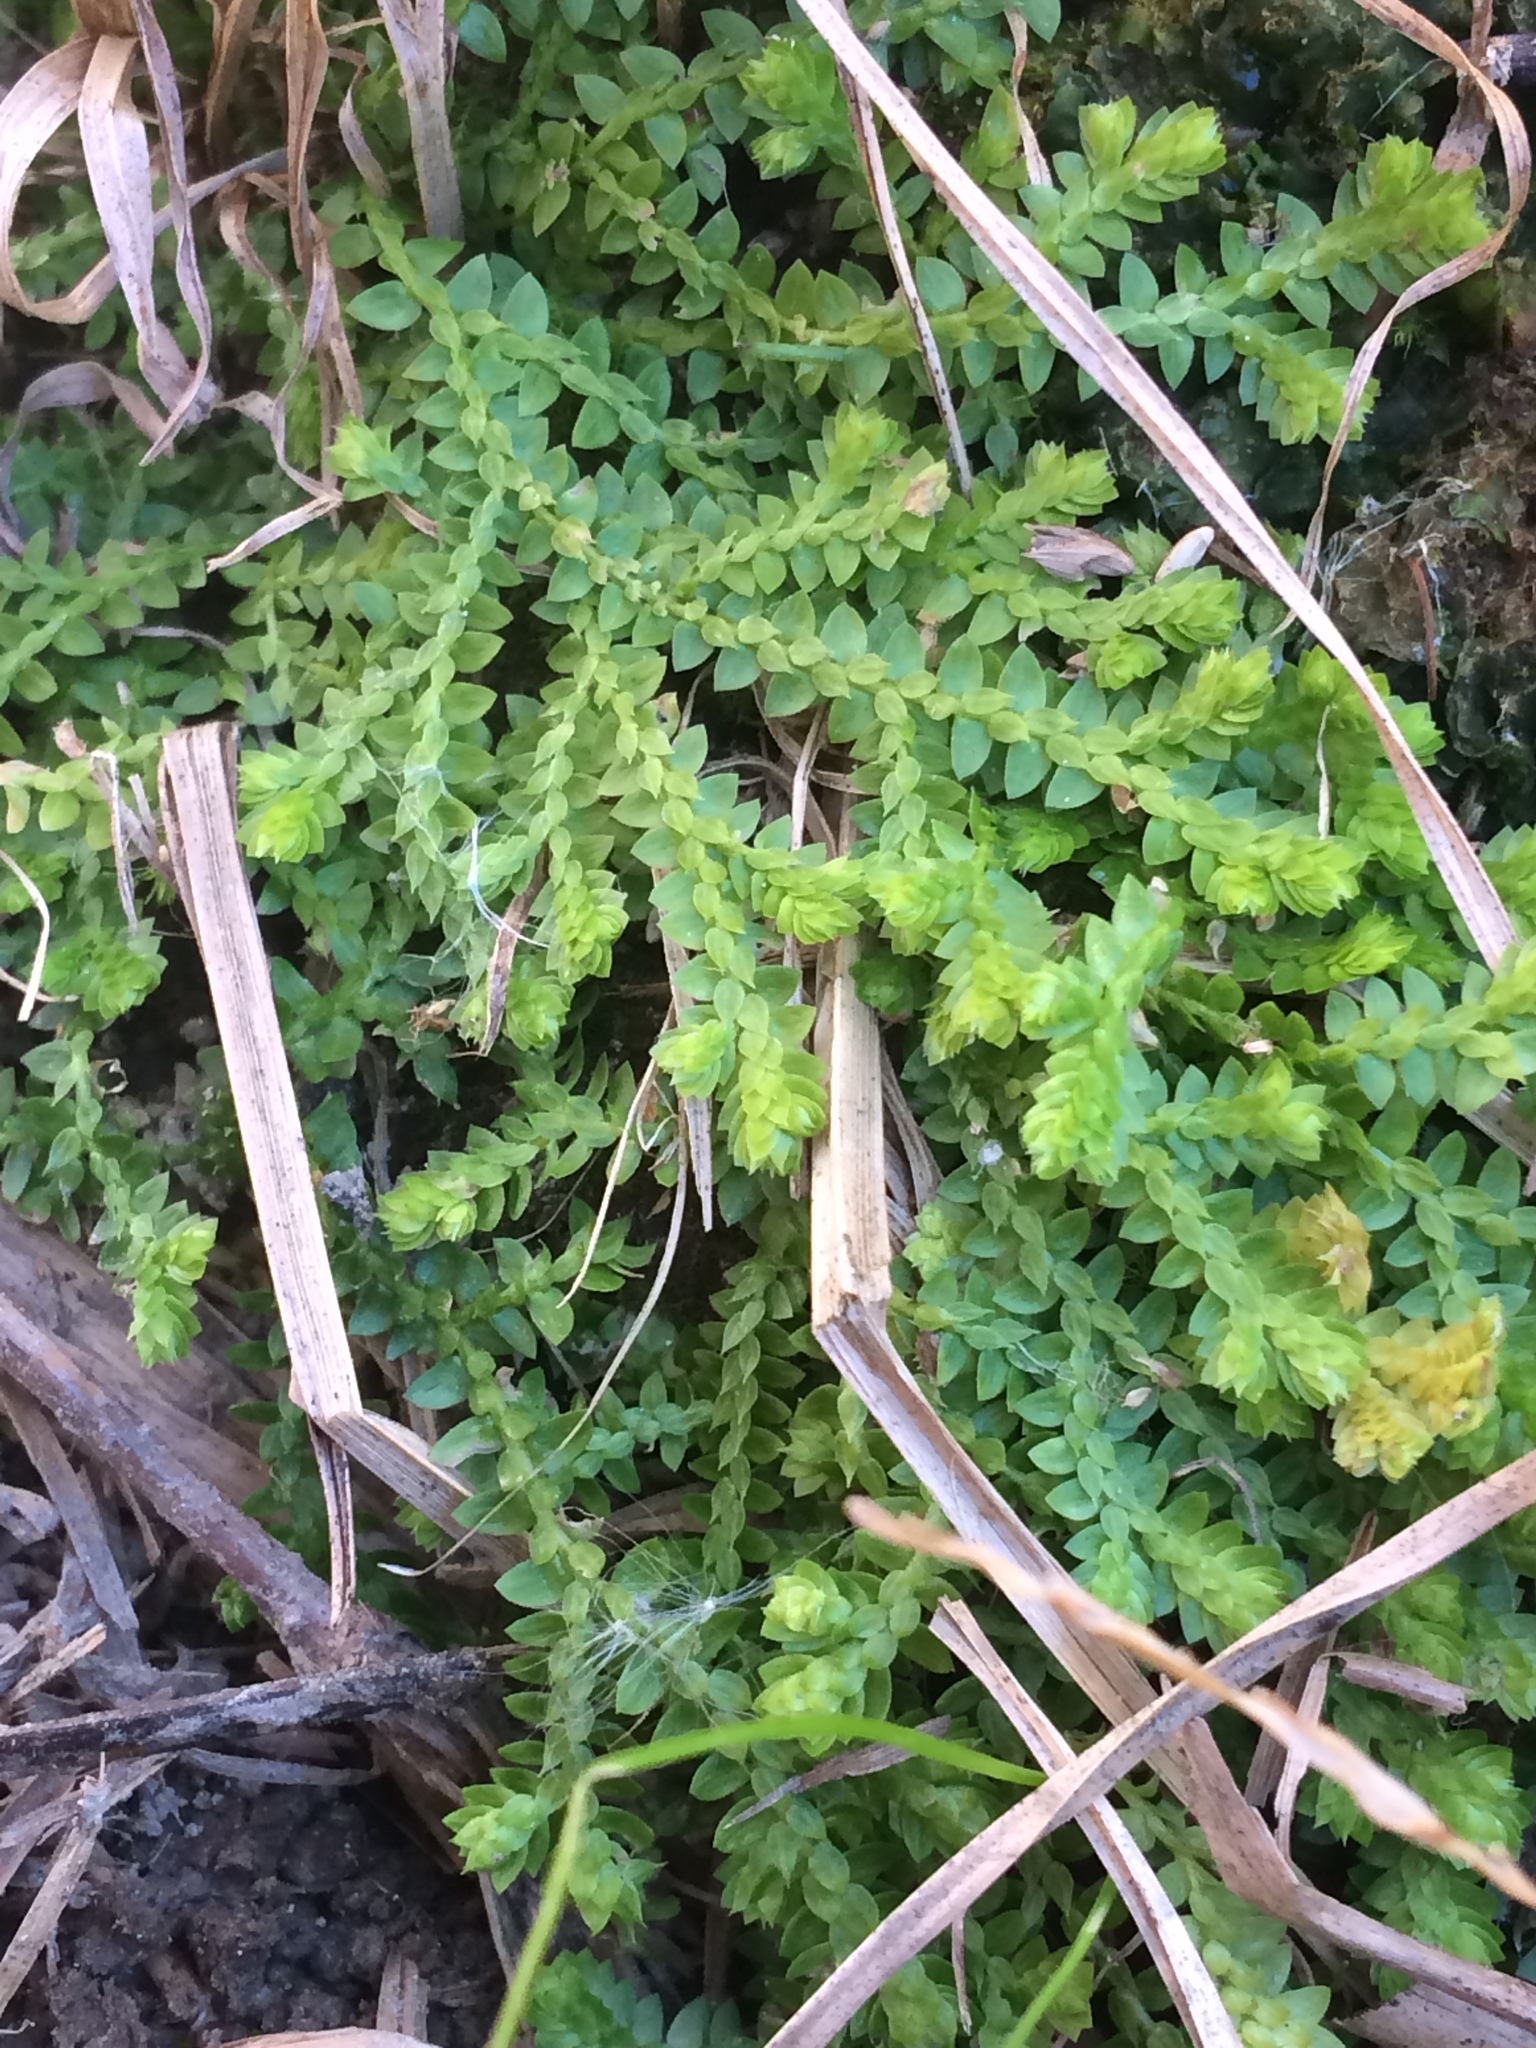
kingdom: Plantae
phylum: Tracheophyta
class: Lycopodiopsida
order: Selaginellales
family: Selaginellaceae
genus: Selaginella
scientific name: Selaginella apoda
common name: Creeping spikemoss
